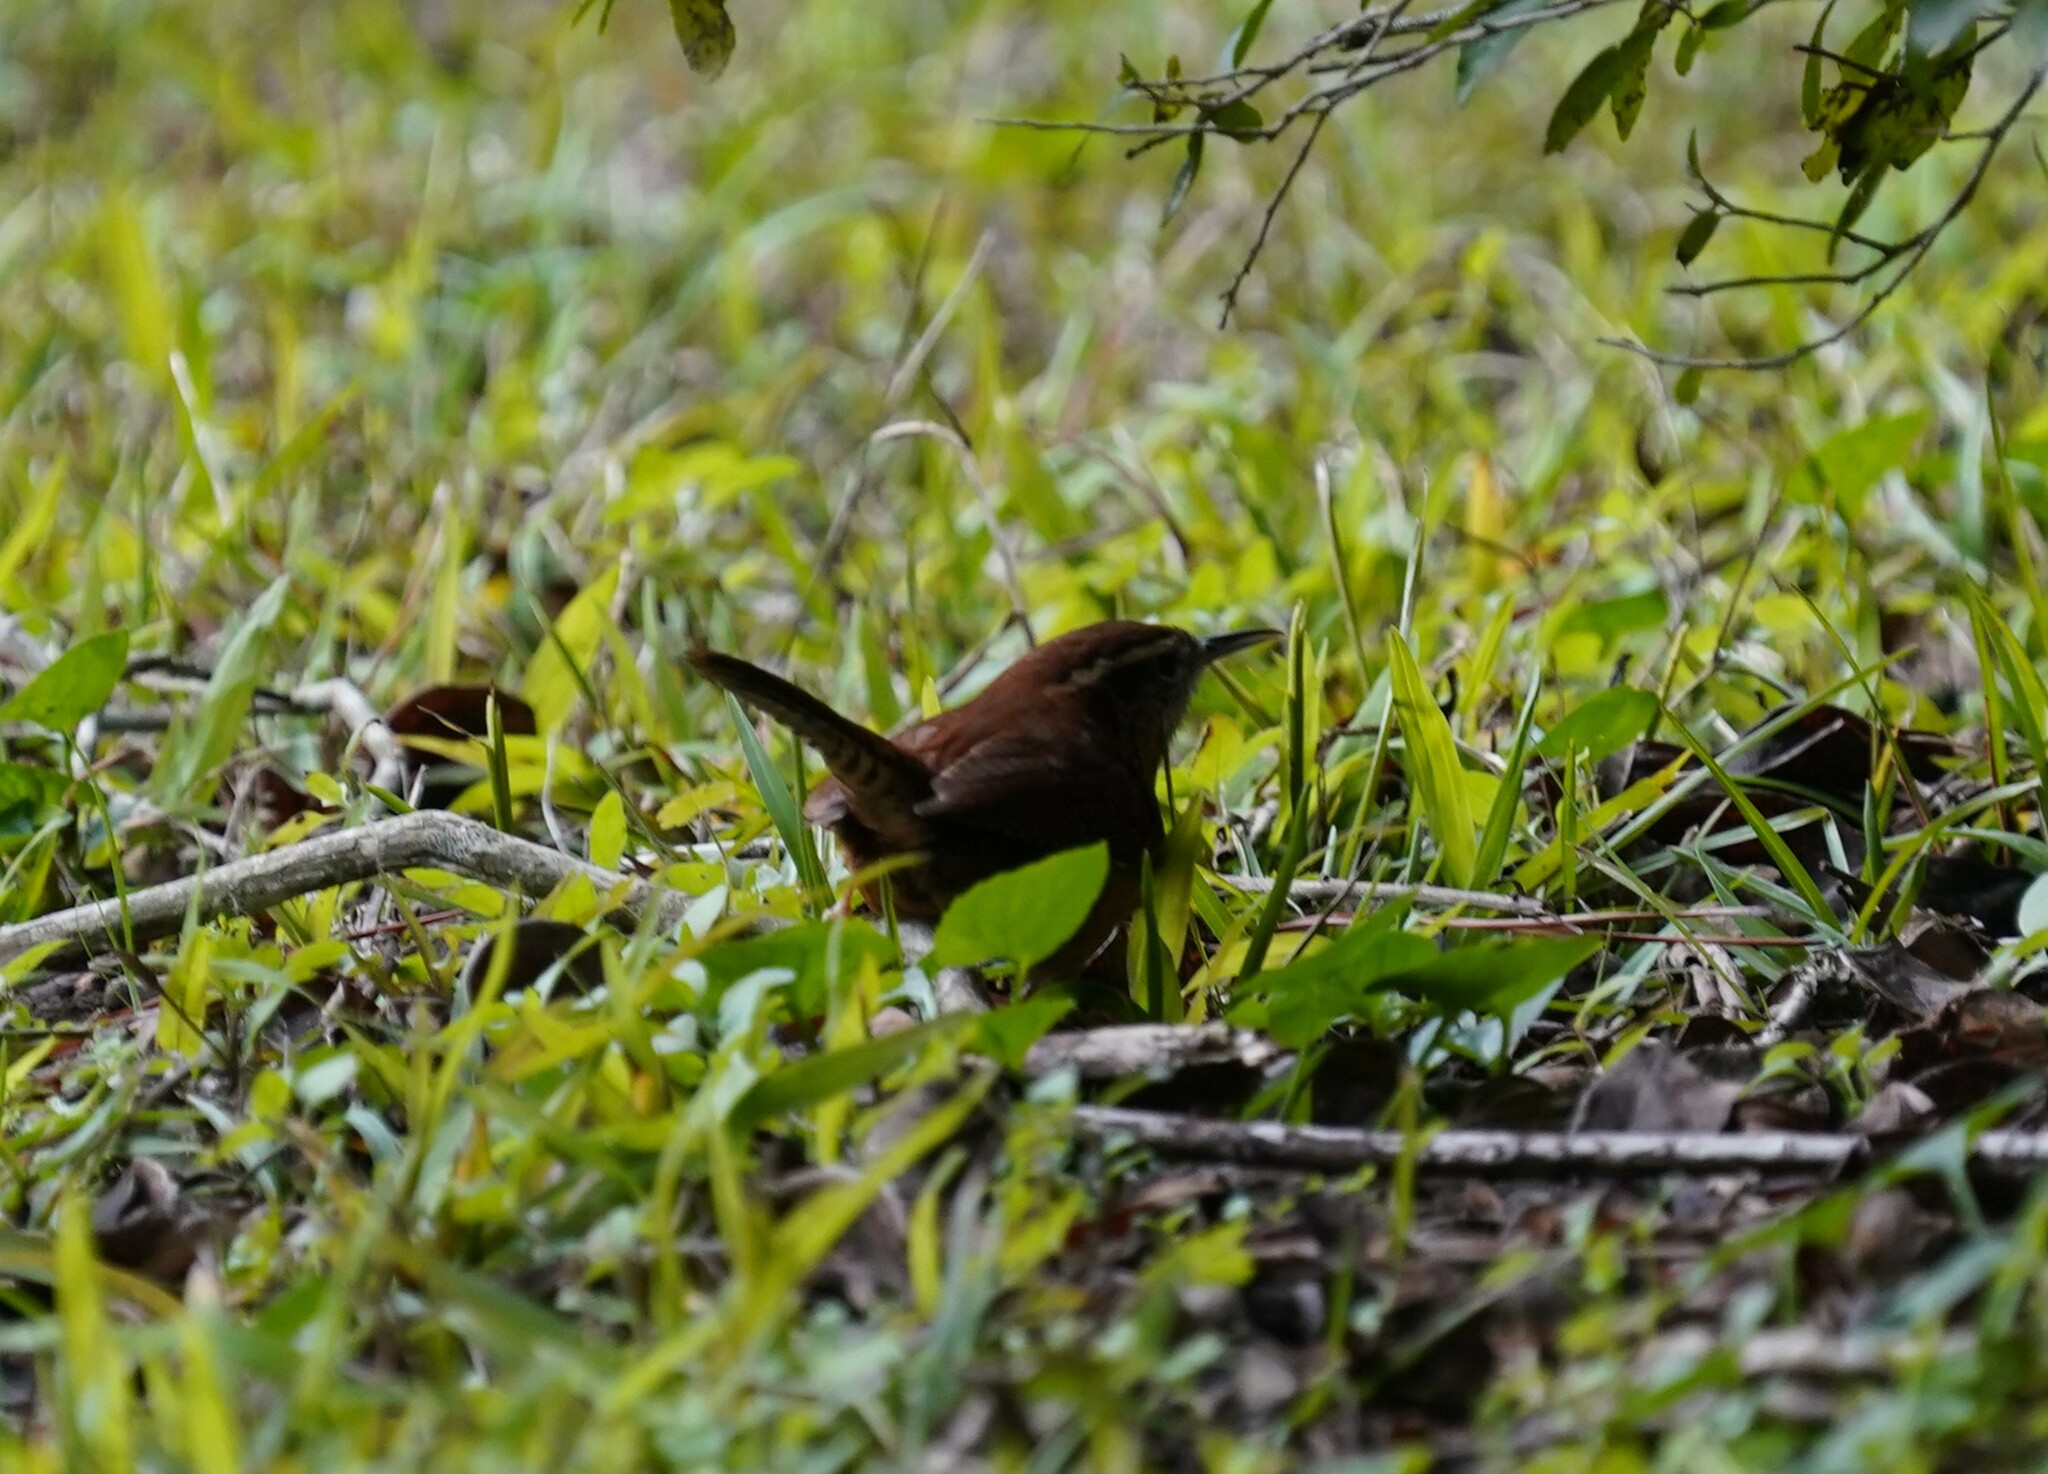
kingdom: Animalia
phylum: Chordata
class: Aves
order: Passeriformes
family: Troglodytidae
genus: Thryothorus
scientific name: Thryothorus ludovicianus
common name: Carolina wren
